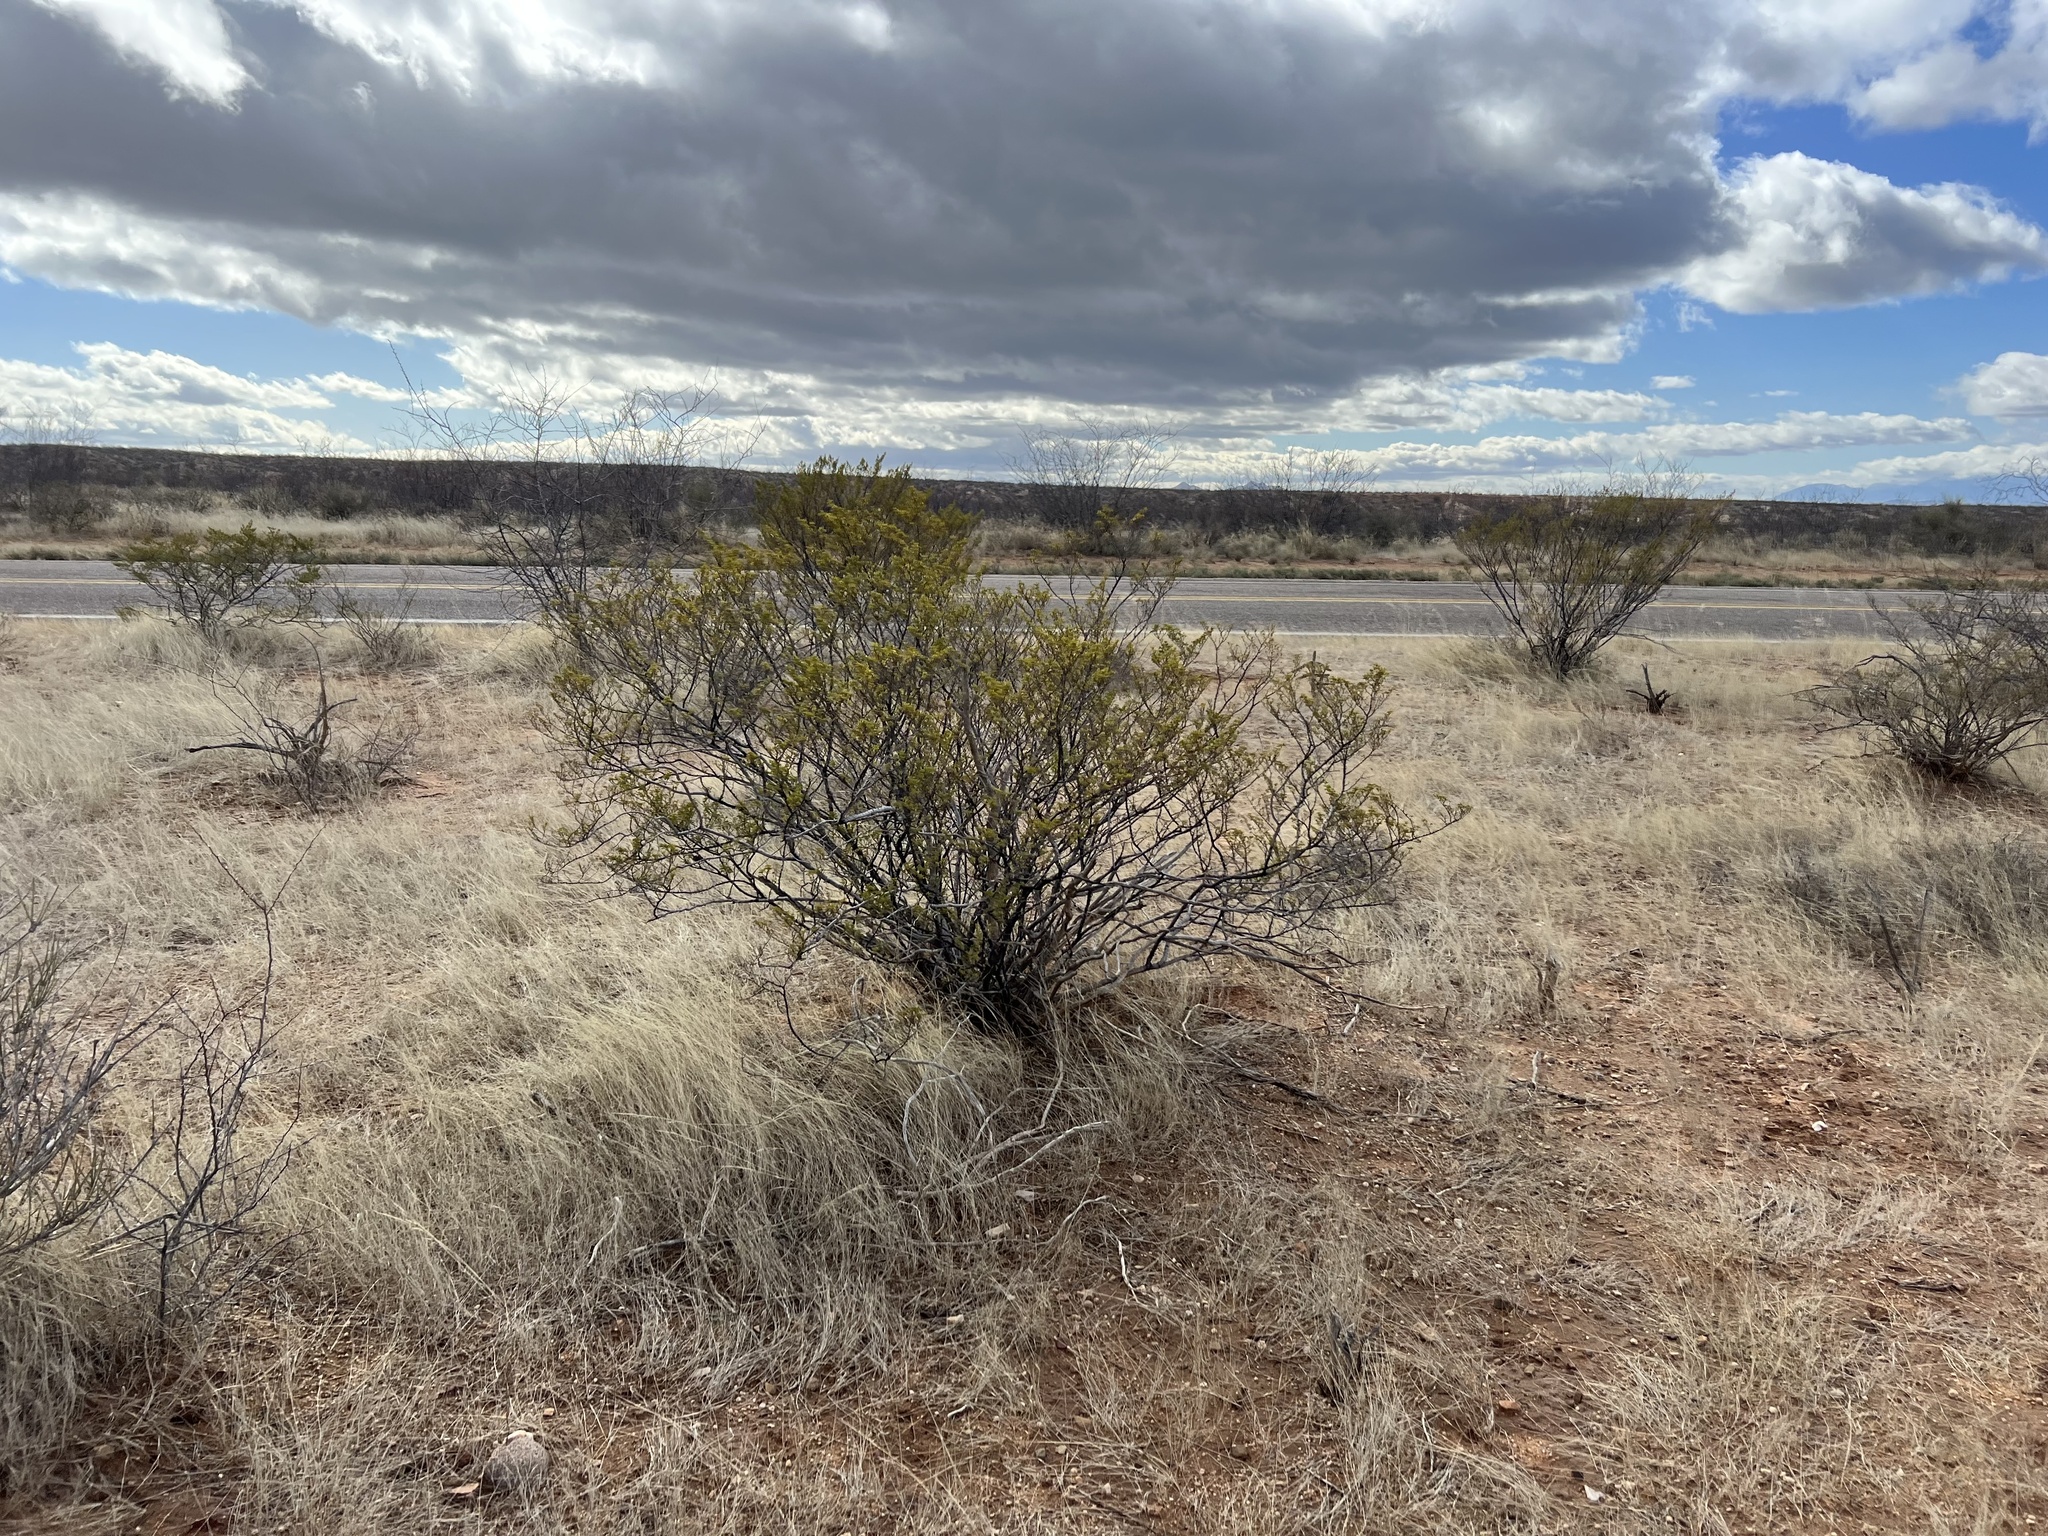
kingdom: Plantae
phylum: Tracheophyta
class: Magnoliopsida
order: Zygophyllales
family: Zygophyllaceae
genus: Larrea
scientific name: Larrea tridentata
